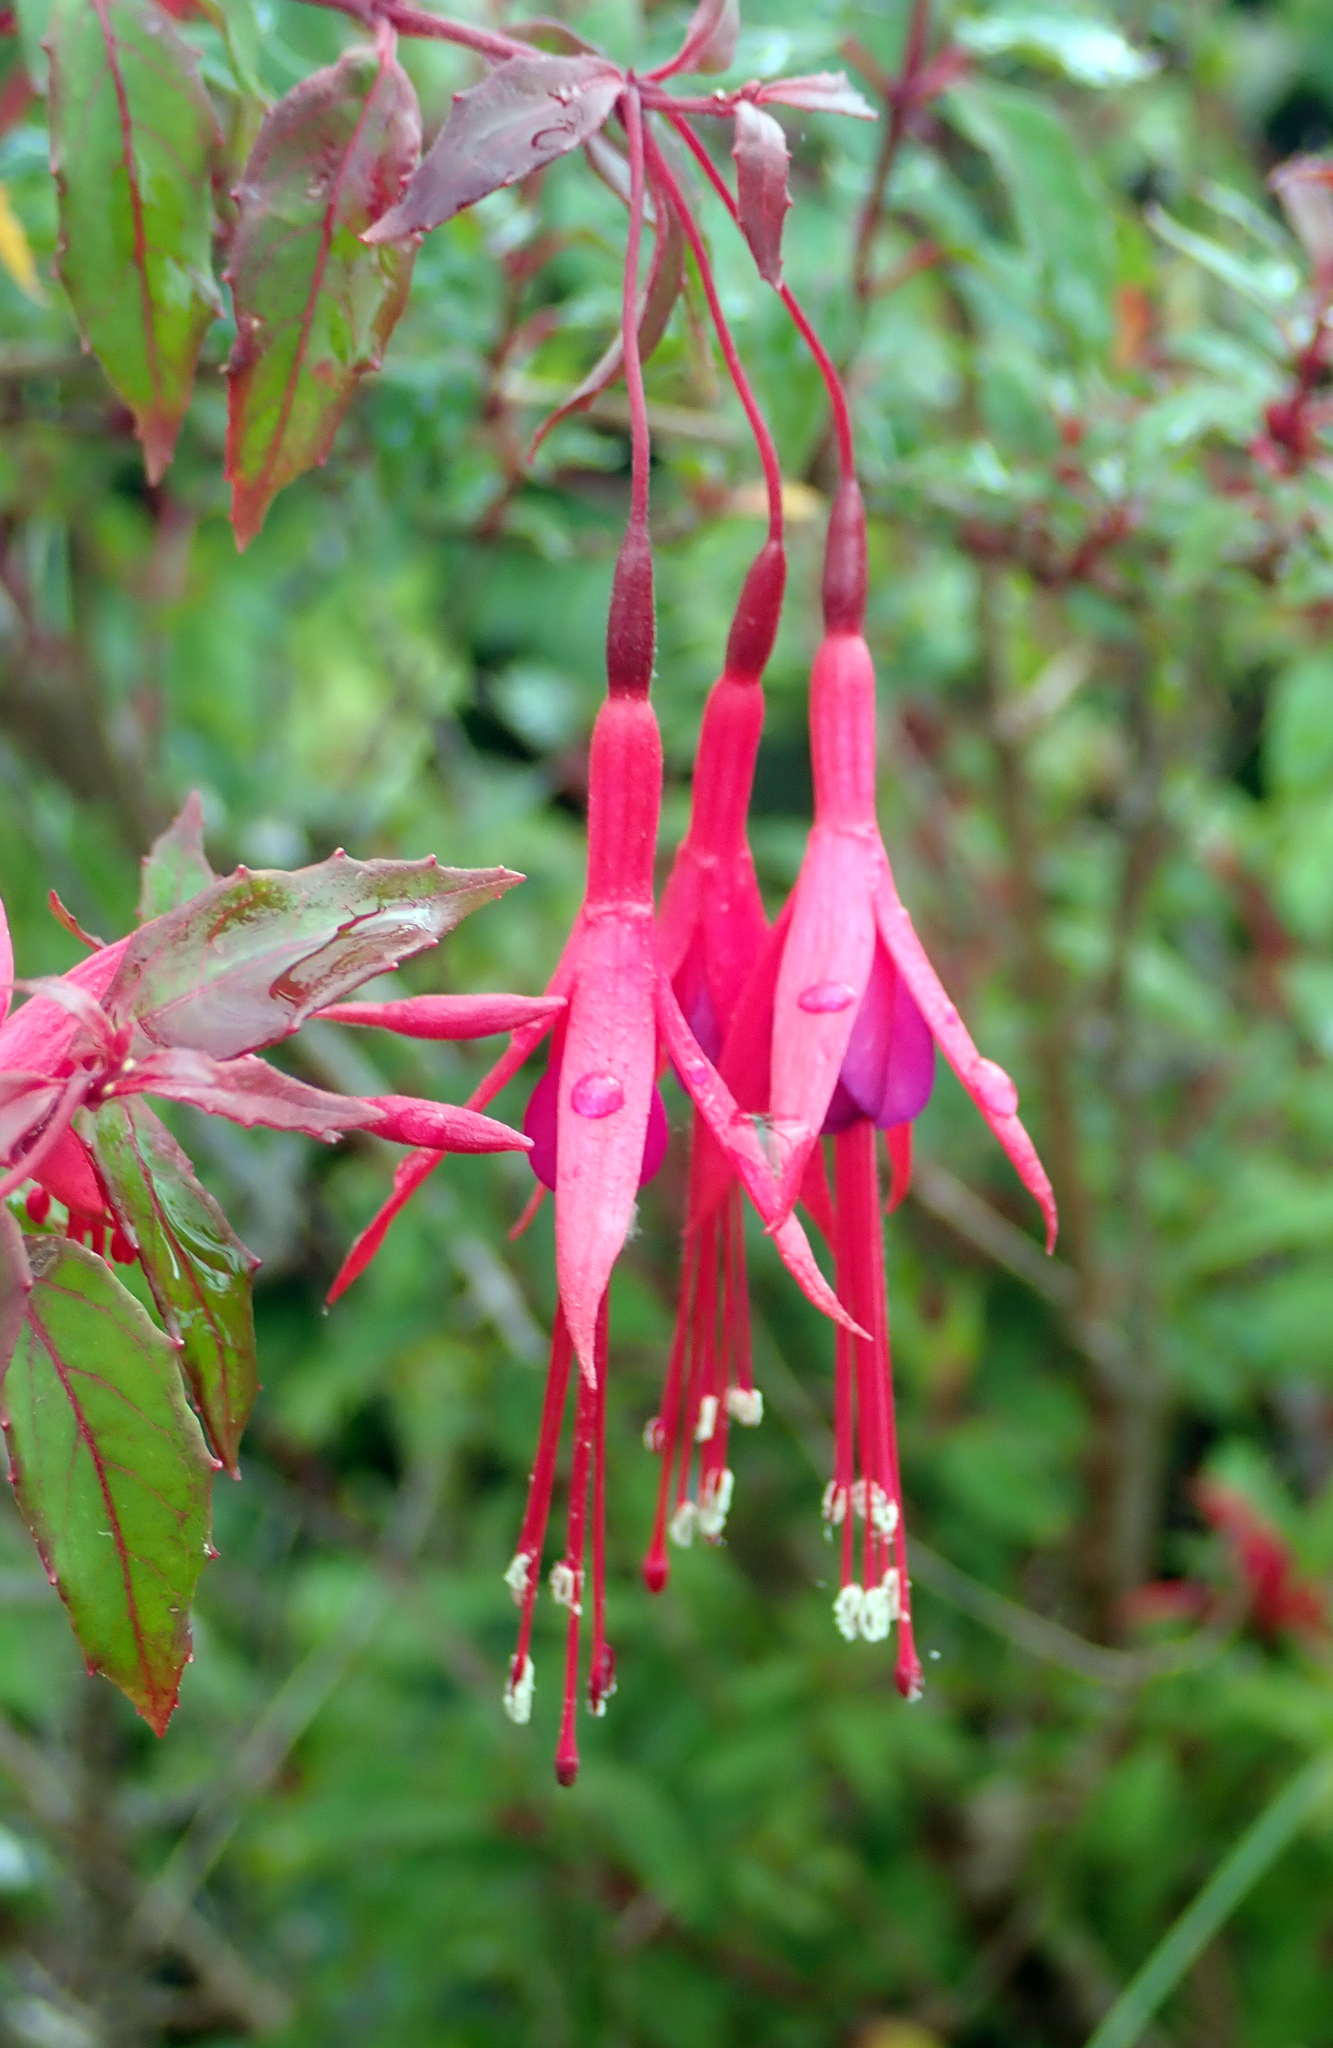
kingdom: Plantae
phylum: Tracheophyta
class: Magnoliopsida
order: Myrtales
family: Onagraceae
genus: Fuchsia
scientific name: Fuchsia magellanica
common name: Hardy fuchsia
